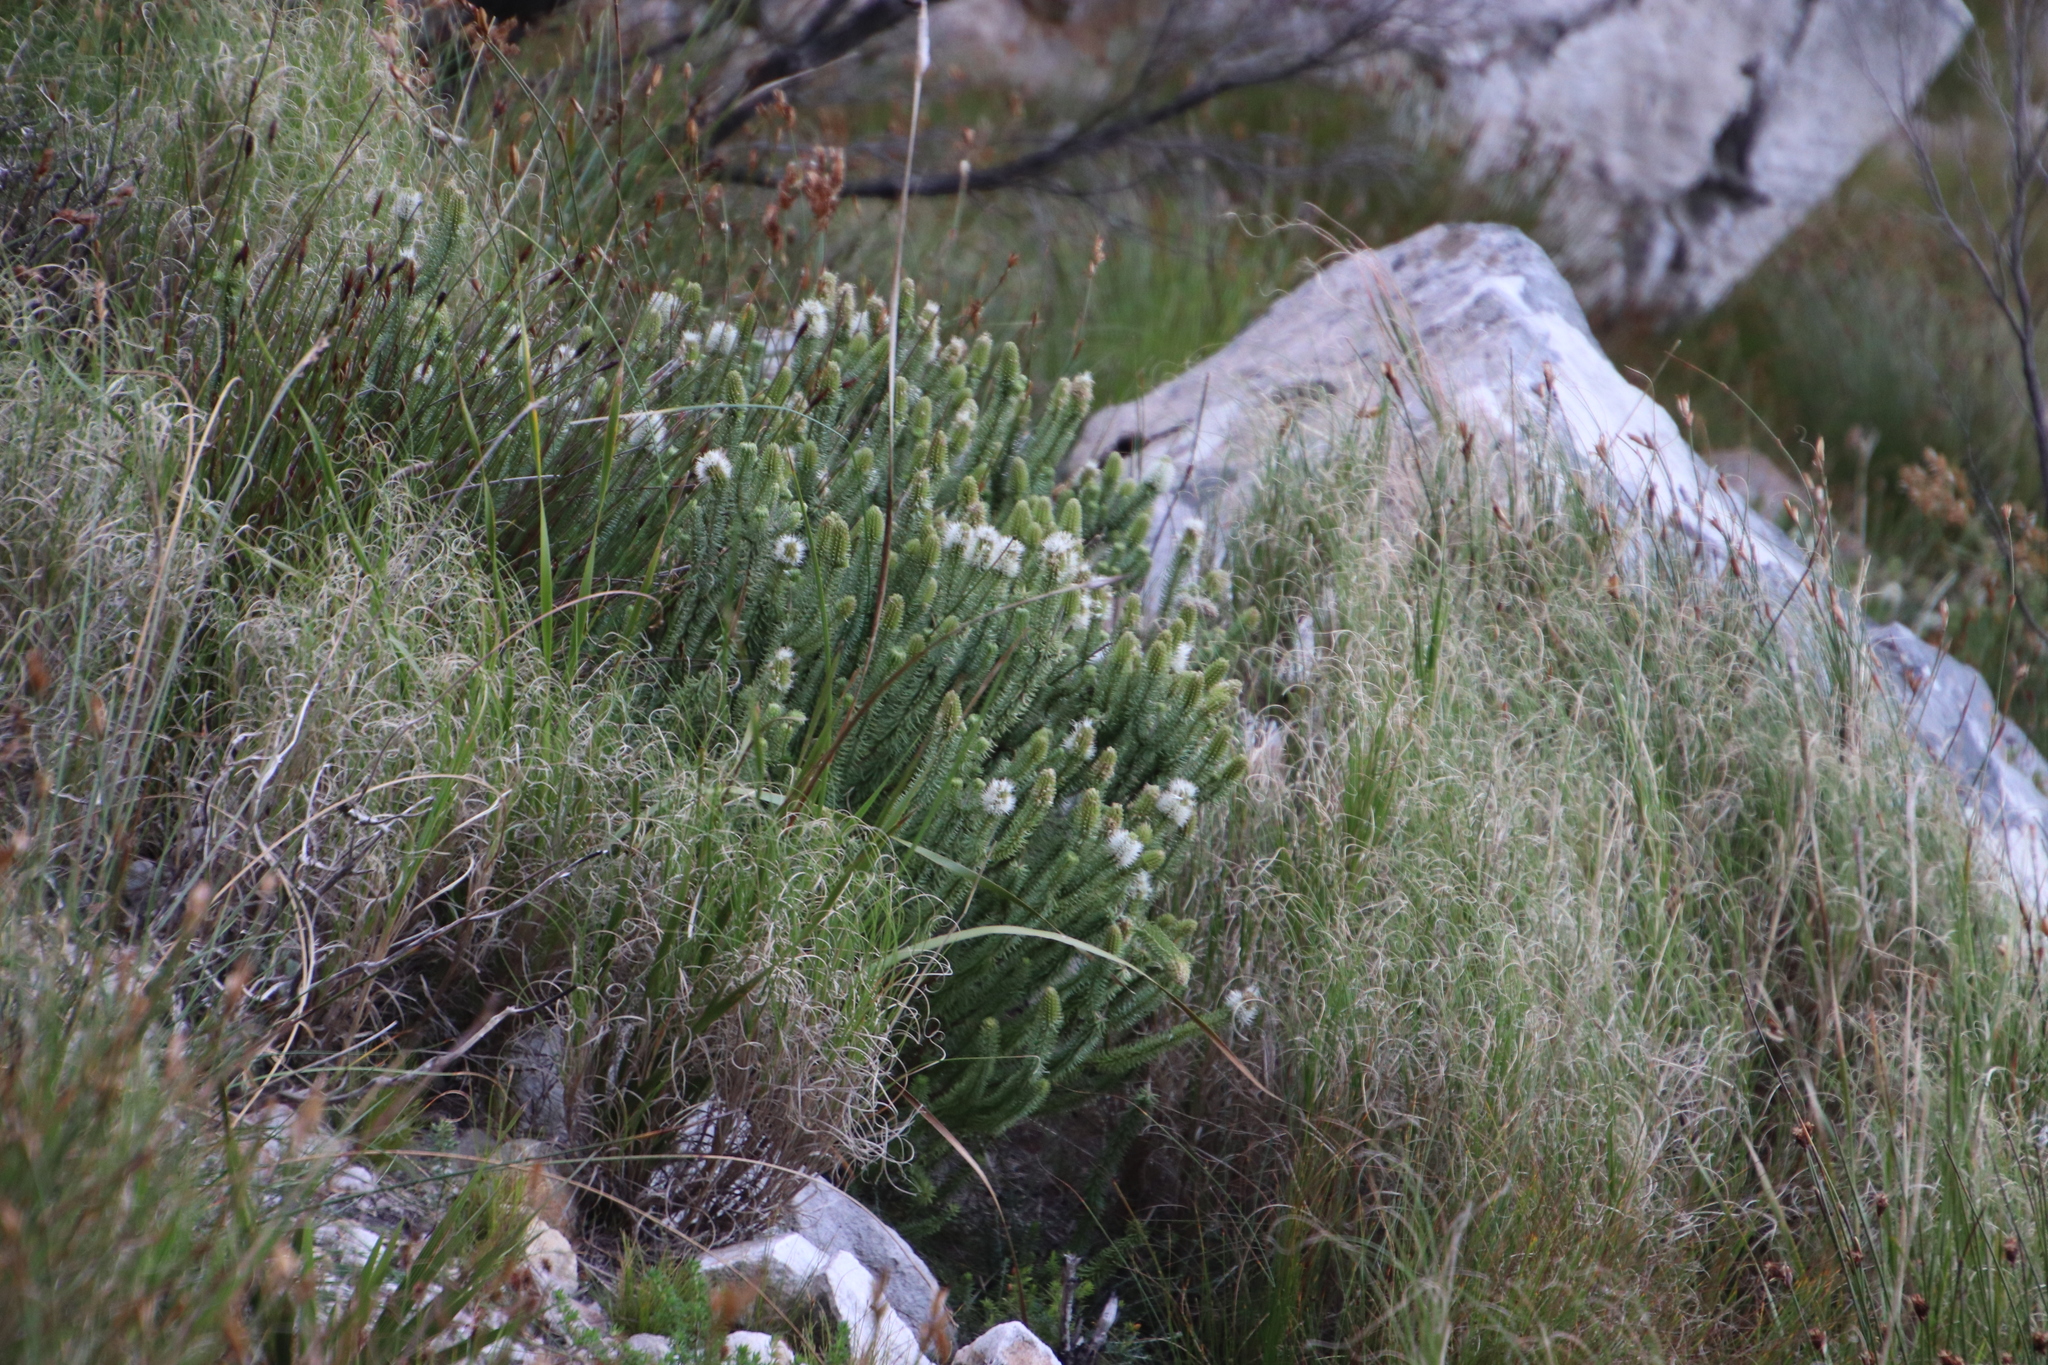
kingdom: Plantae
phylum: Tracheophyta
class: Magnoliopsida
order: Lamiales
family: Stilbaceae
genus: Stilbe
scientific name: Stilbe vestita
